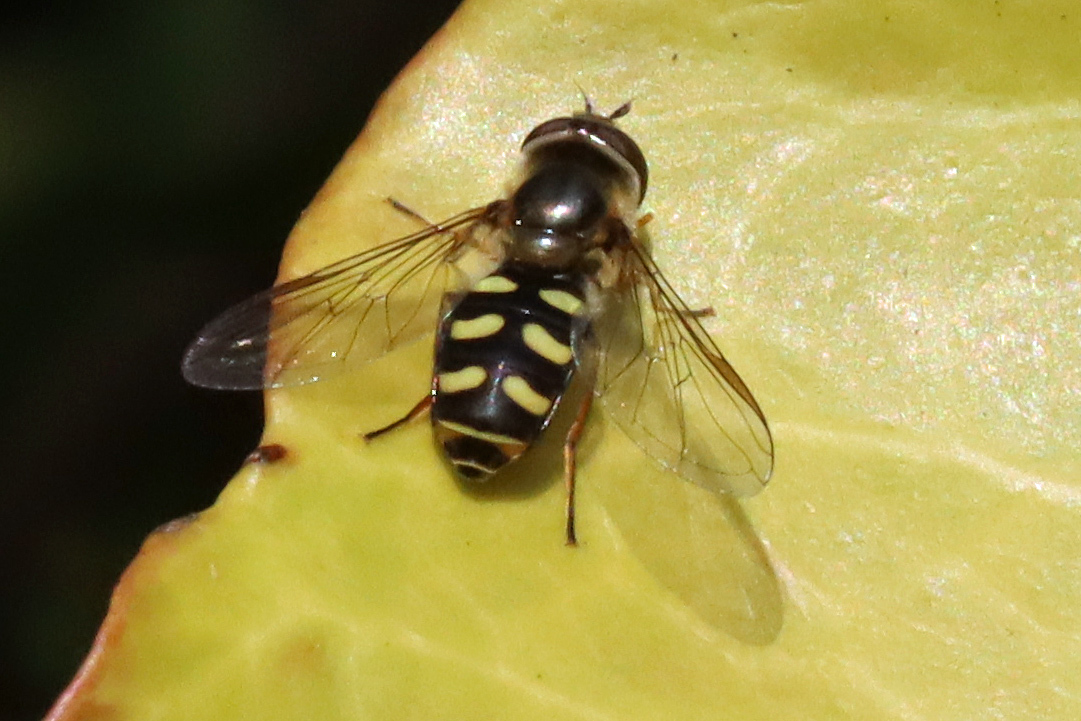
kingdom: Animalia
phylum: Arthropoda
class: Insecta
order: Diptera
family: Syrphidae
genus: Eupeodes
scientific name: Eupeodes
